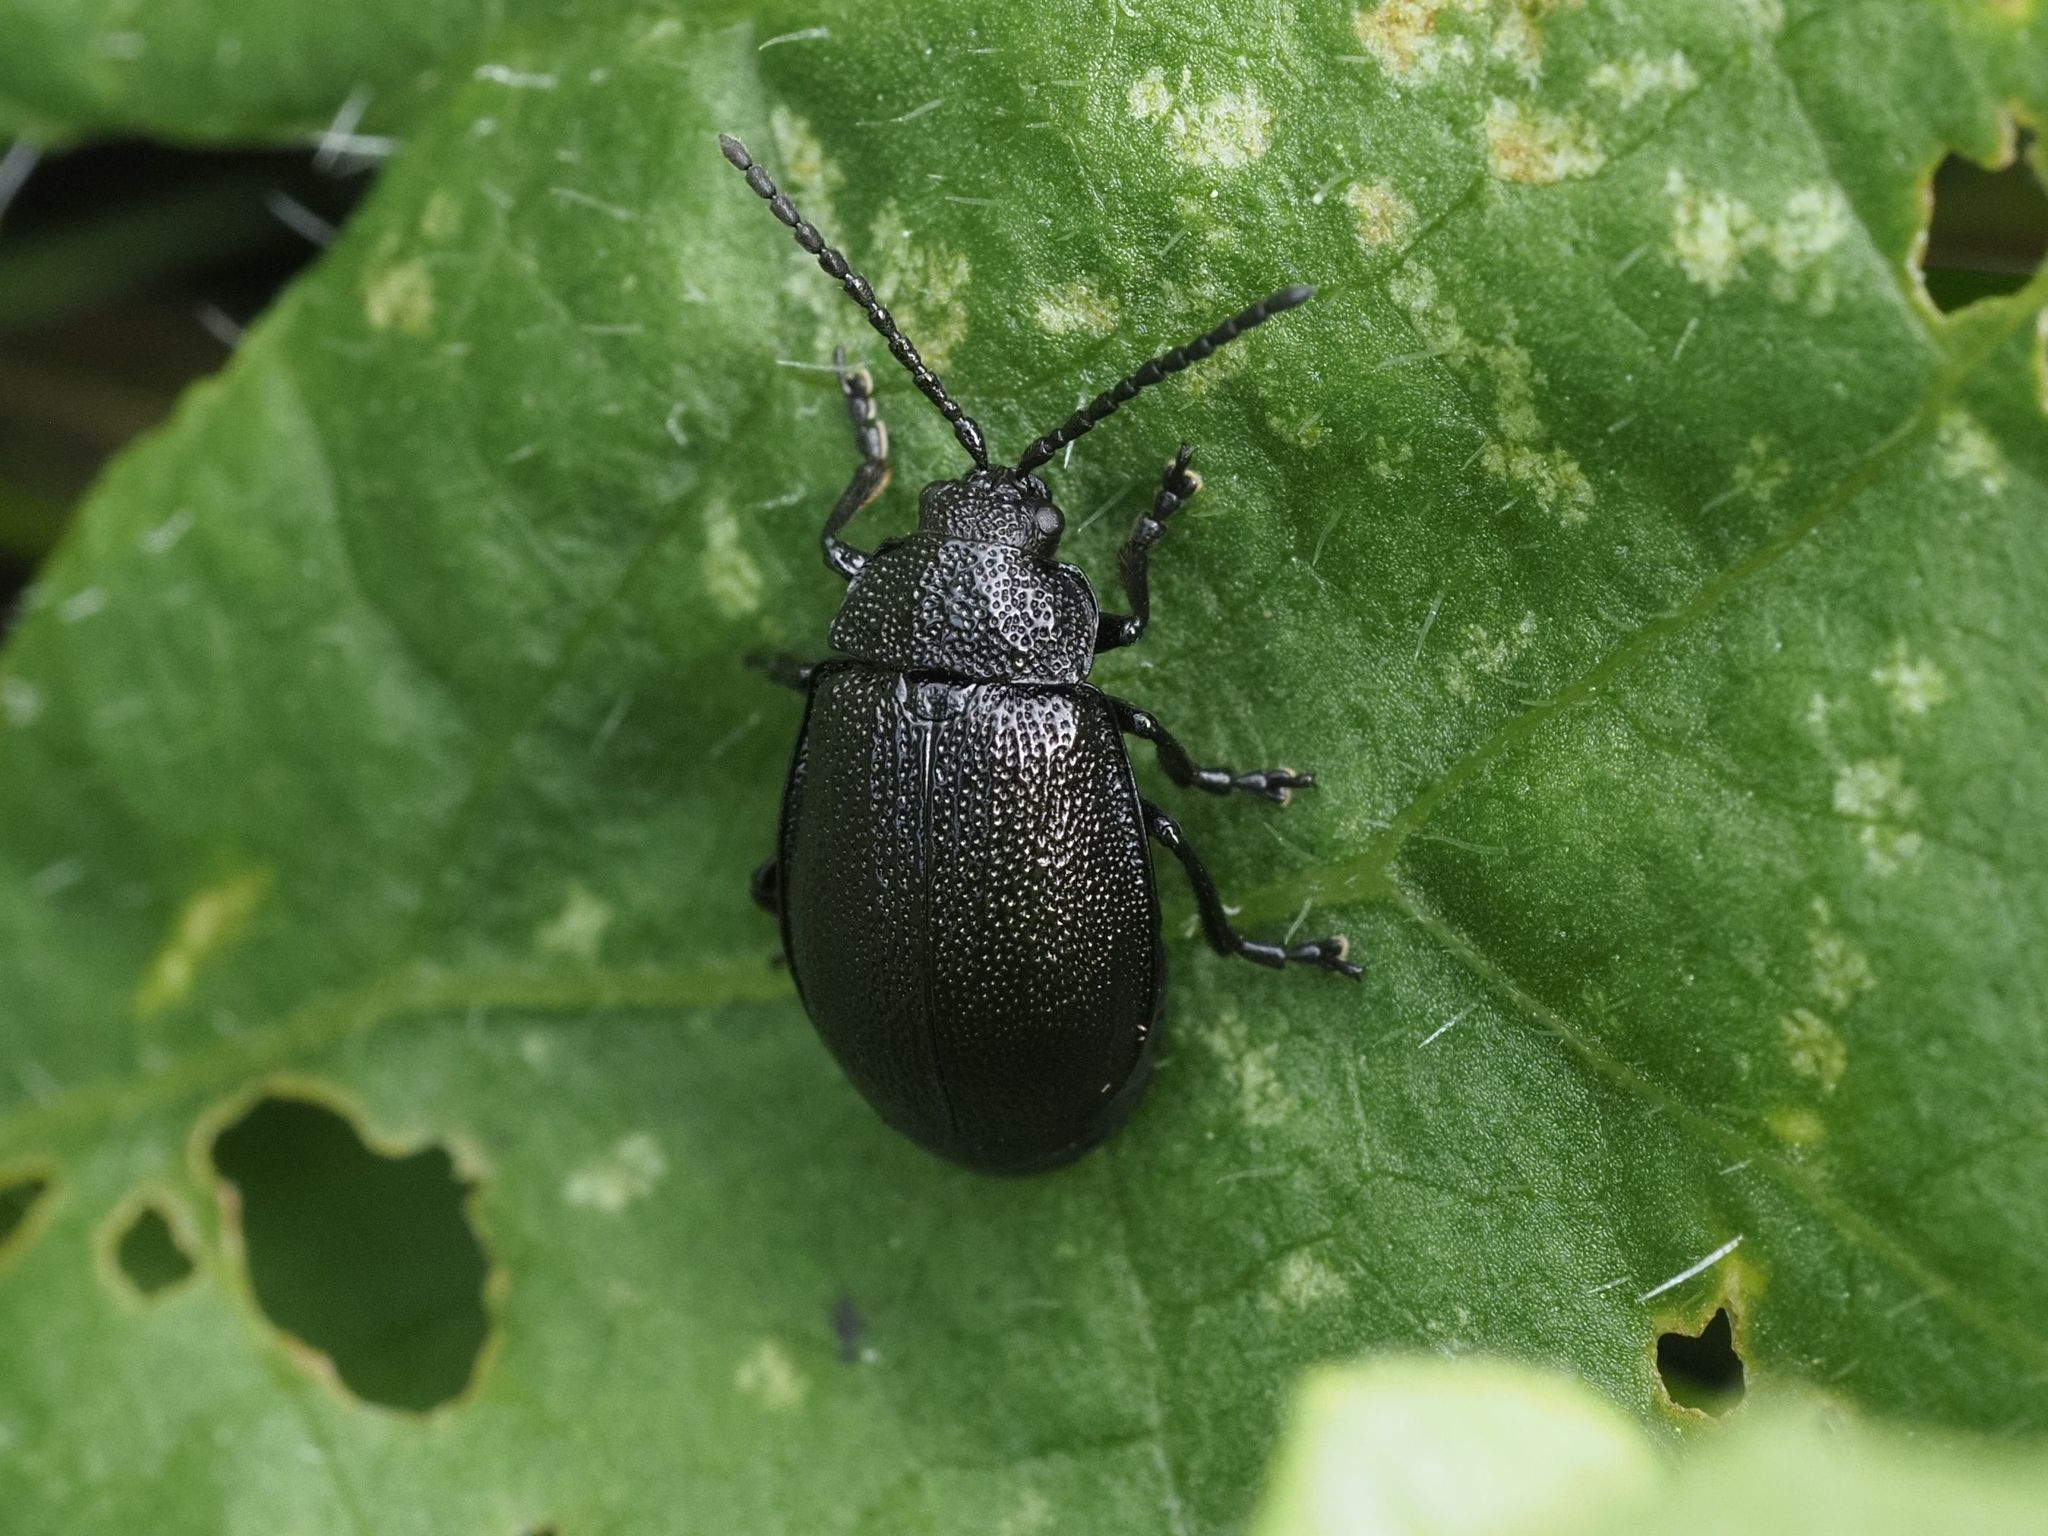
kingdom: Animalia
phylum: Arthropoda
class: Insecta
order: Coleoptera
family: Chrysomelidae
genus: Galeruca
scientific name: Galeruca tanaceti
